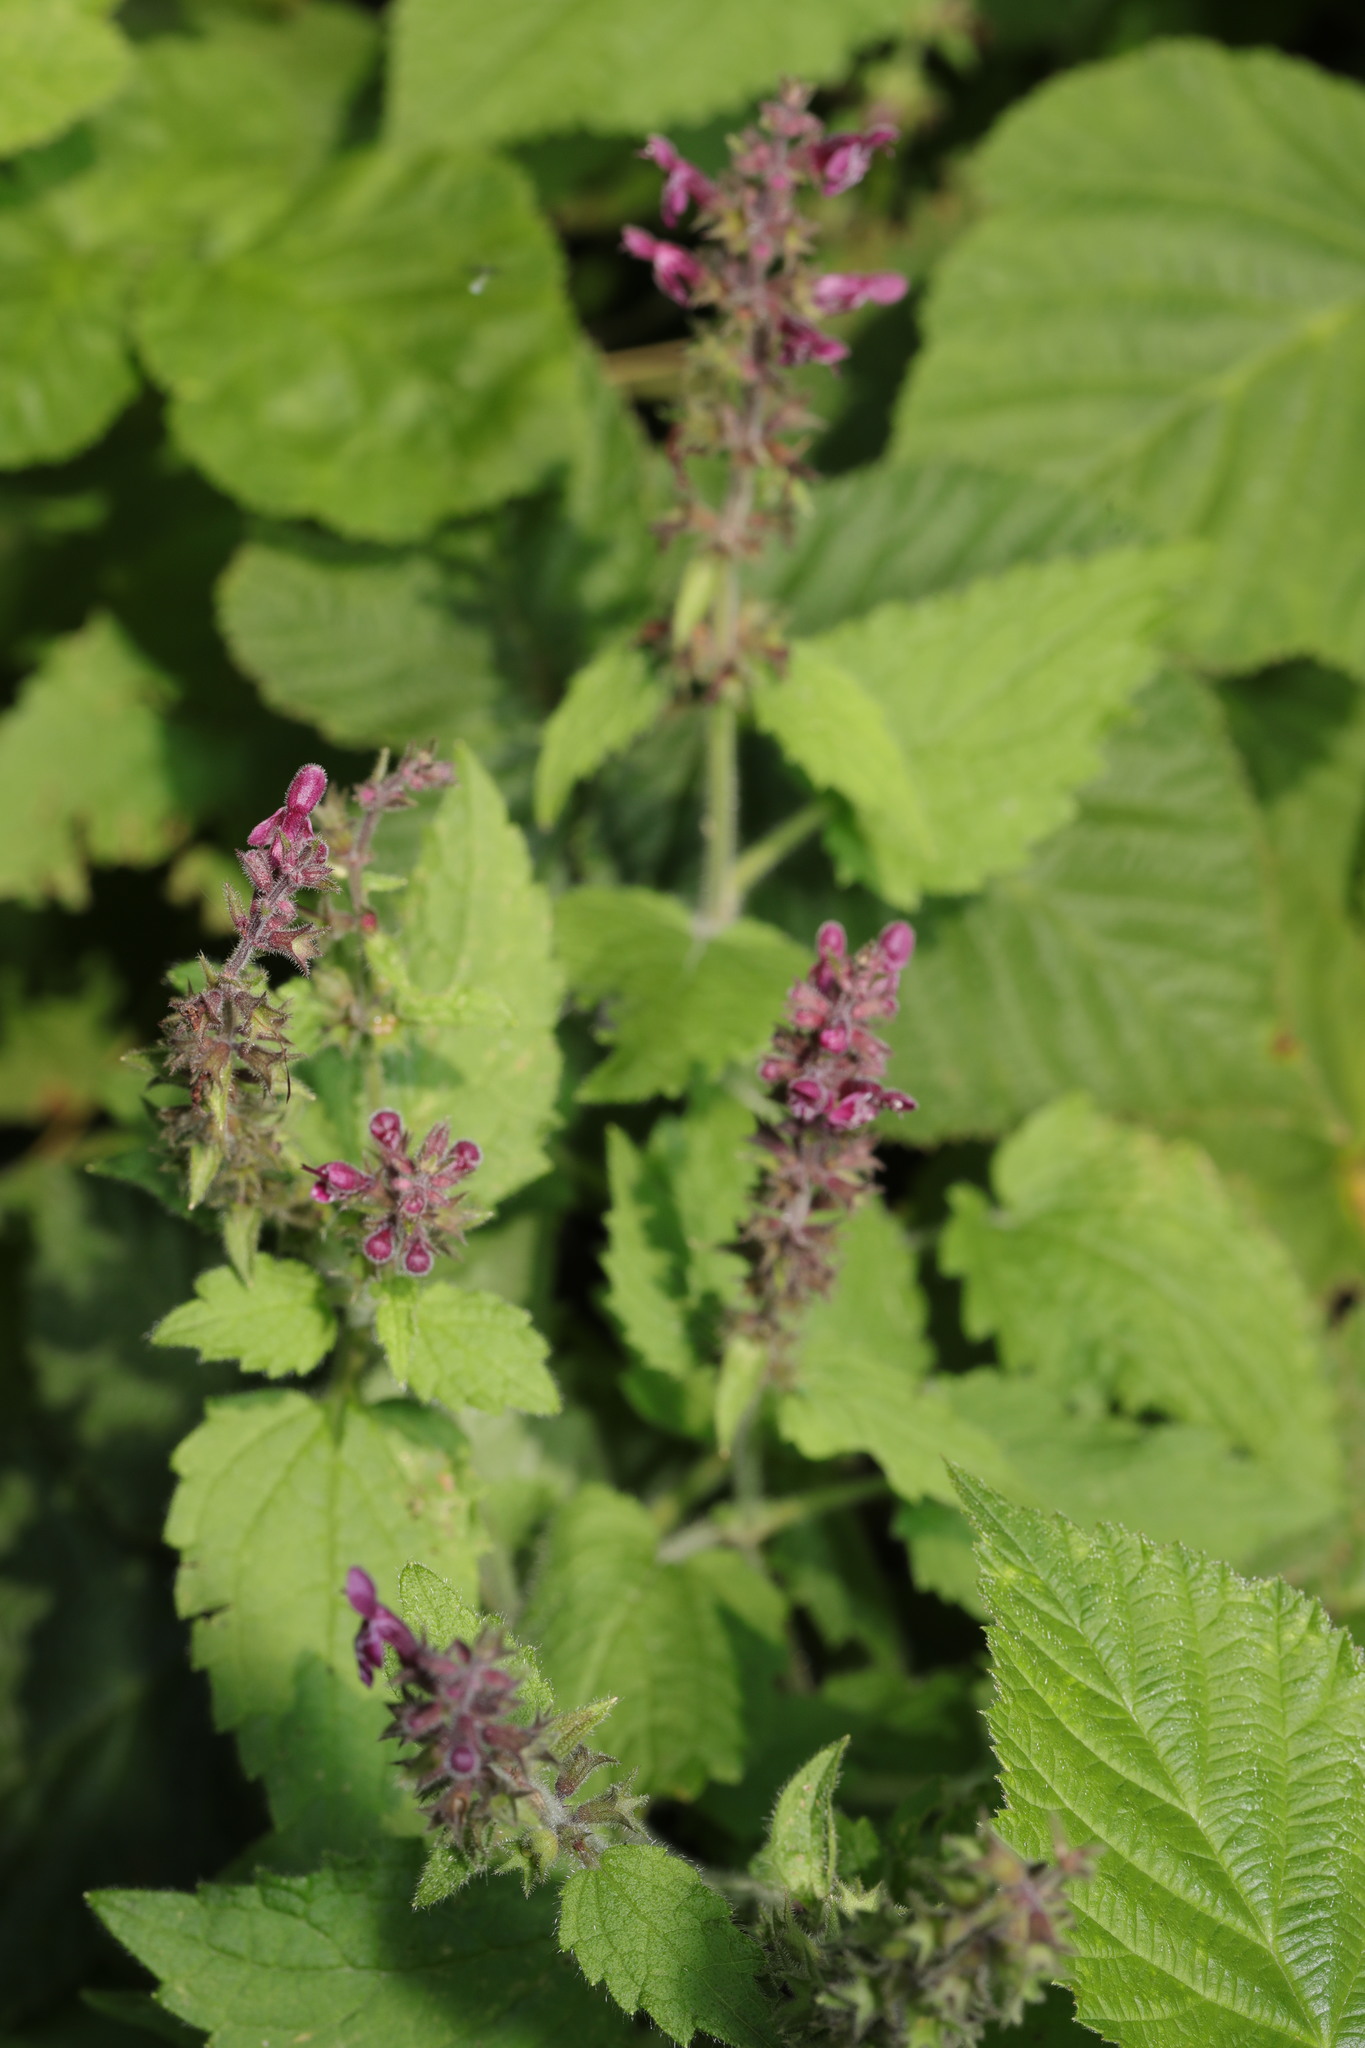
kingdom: Plantae
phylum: Tracheophyta
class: Magnoliopsida
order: Lamiales
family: Lamiaceae
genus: Stachys
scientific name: Stachys sylvatica
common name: Hedge woundwort
